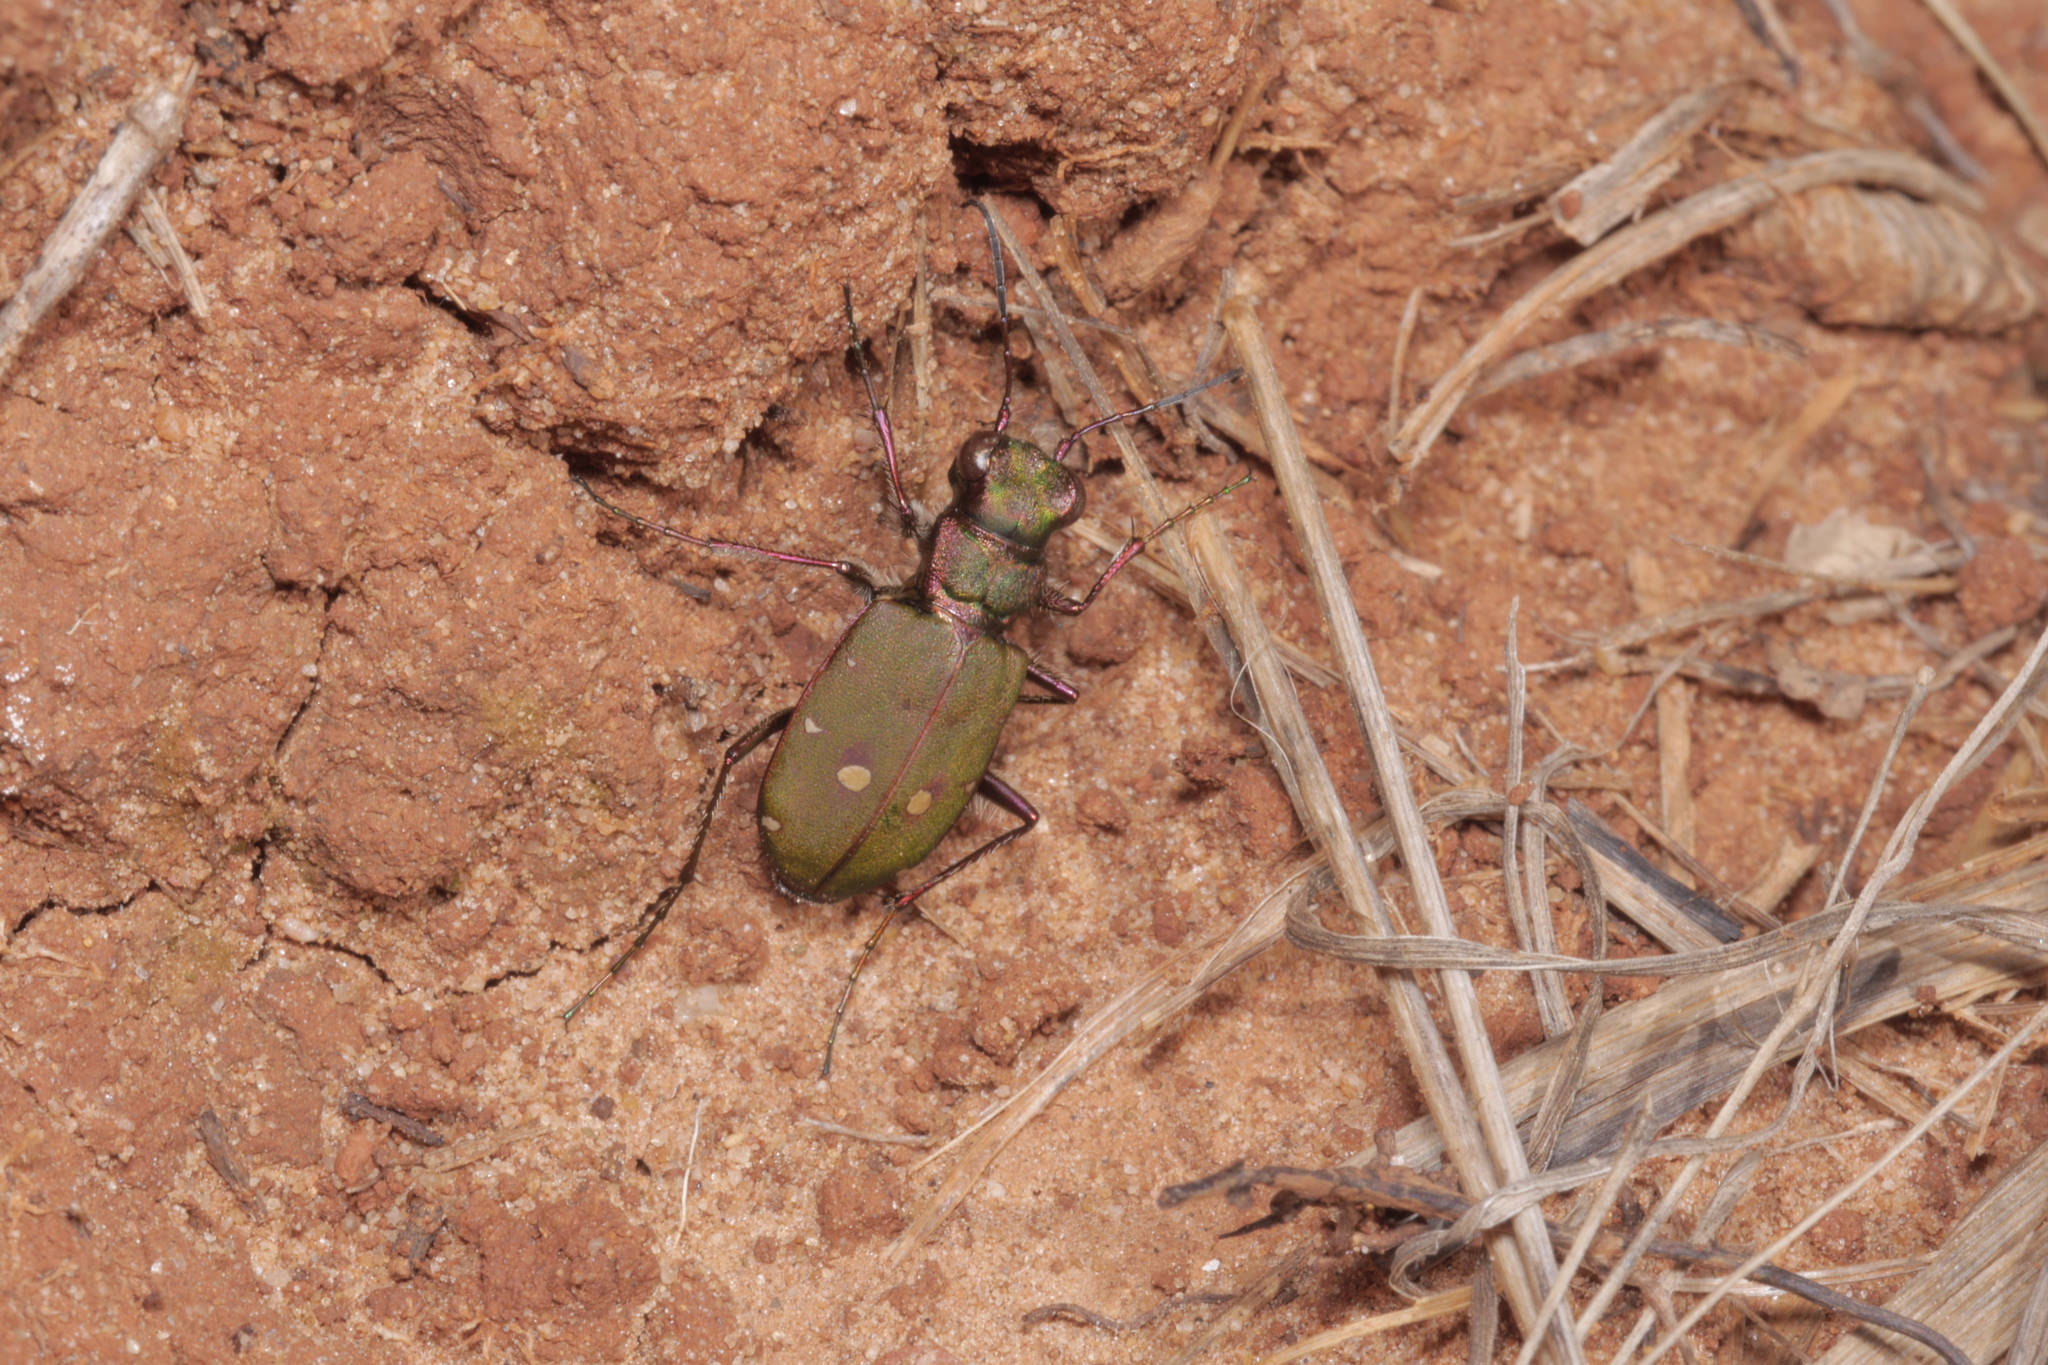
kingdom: Animalia
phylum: Arthropoda
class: Insecta
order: Coleoptera
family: Carabidae
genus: Cicindela
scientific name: Cicindela campestris
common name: Common tiger beetle
